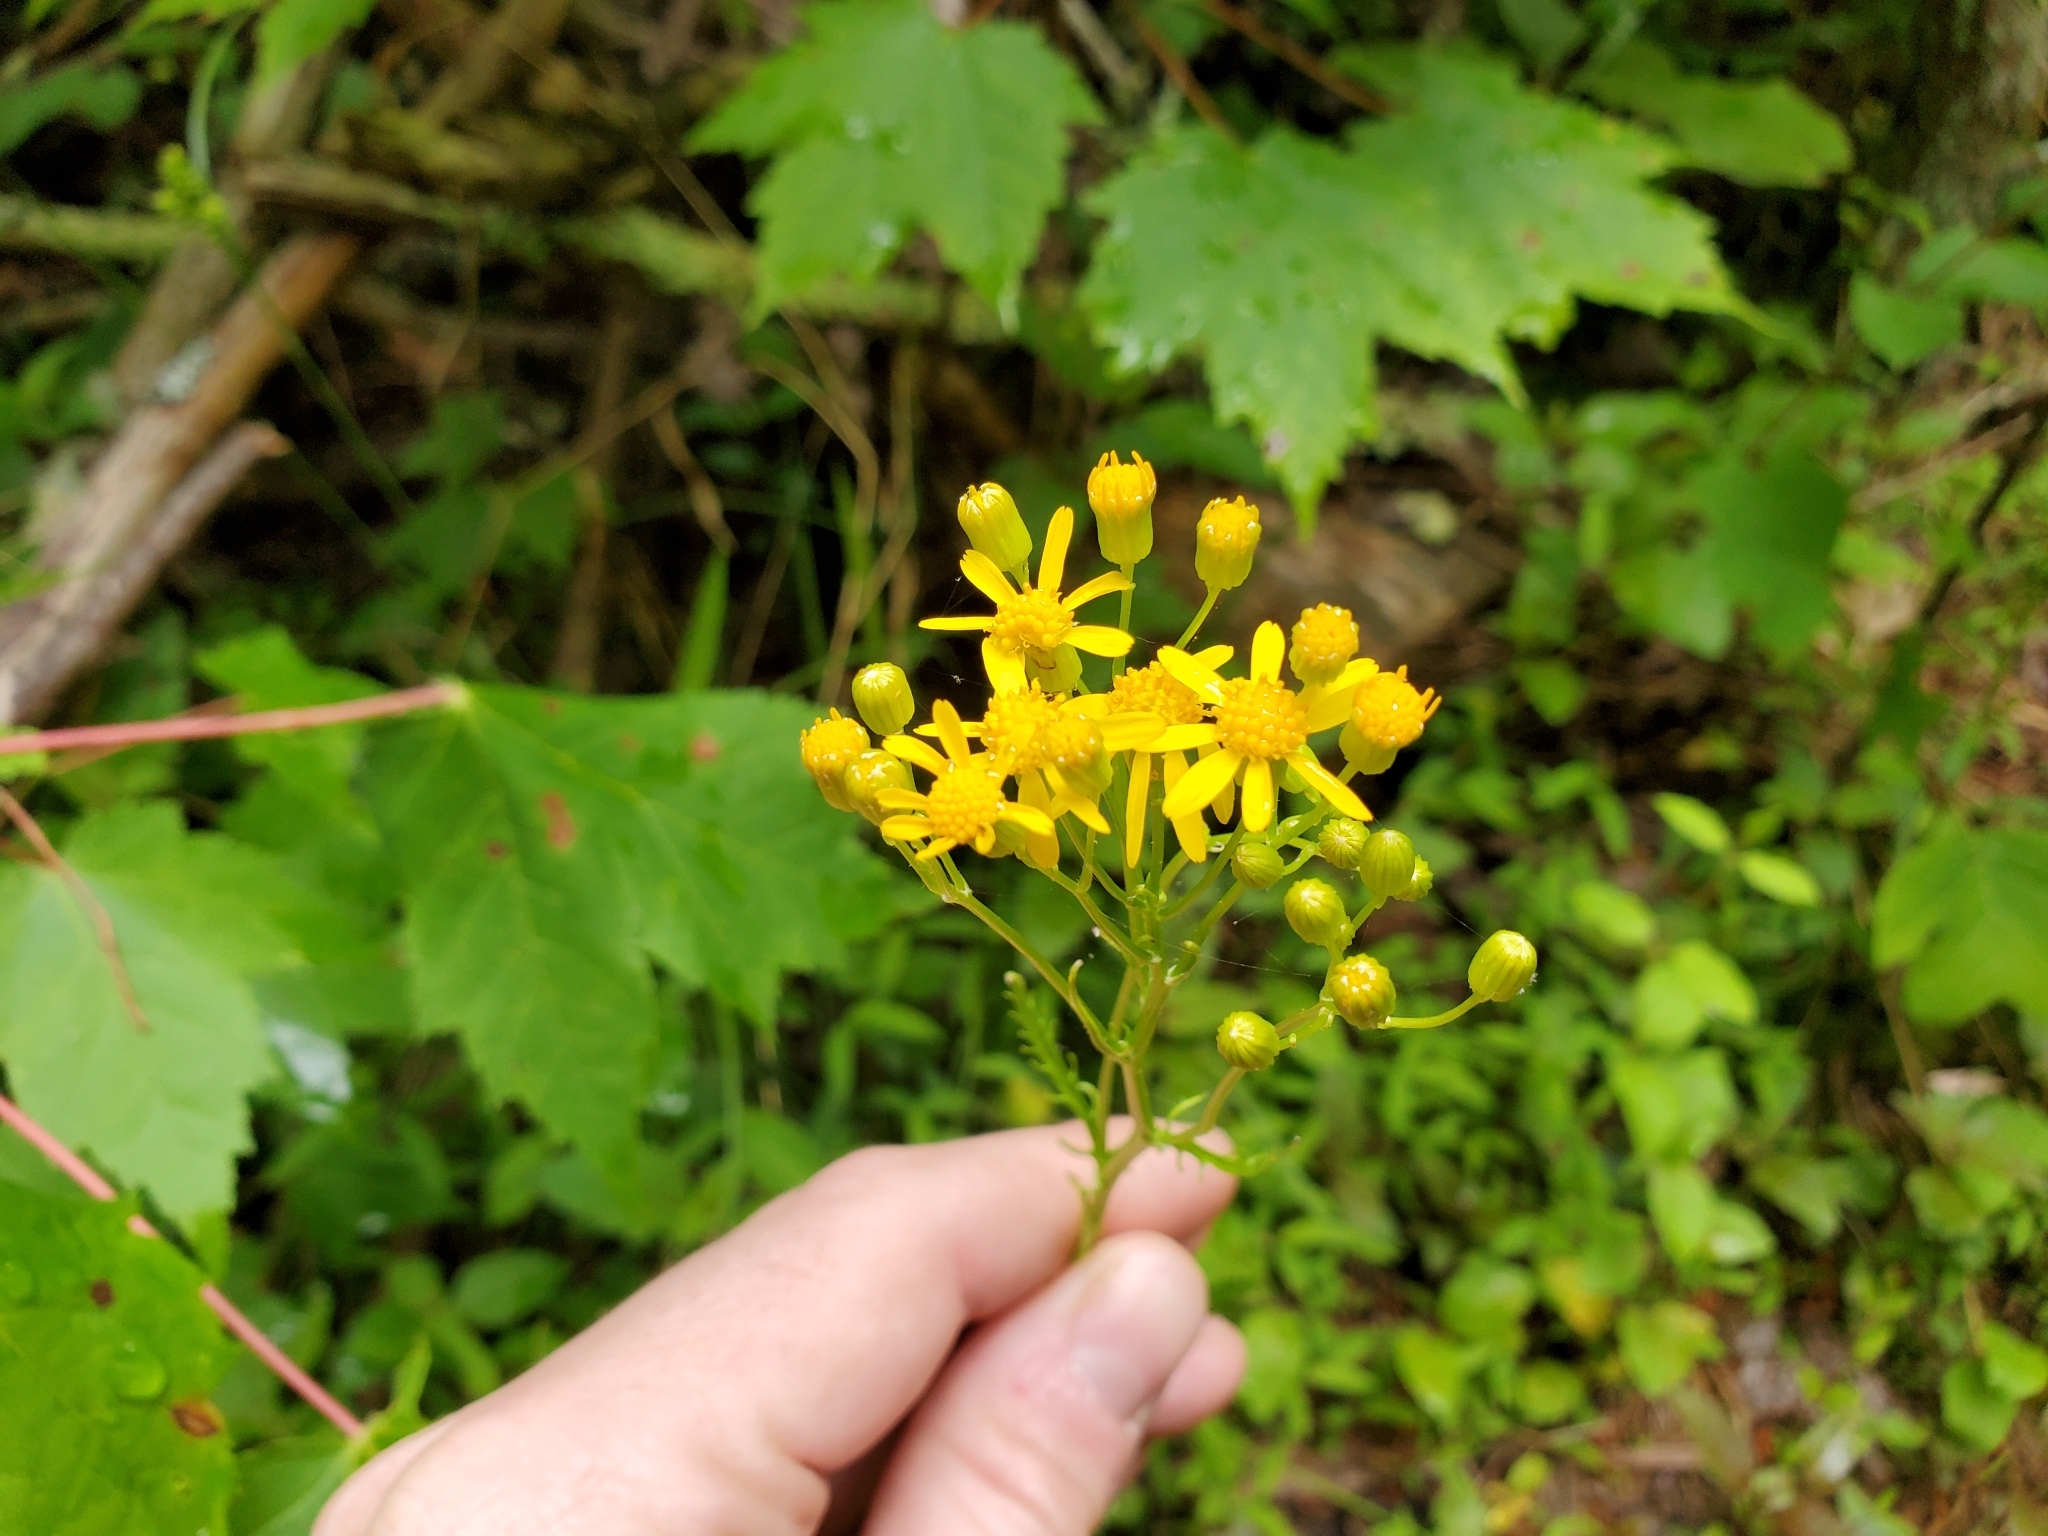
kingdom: Plantae
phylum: Tracheophyta
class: Magnoliopsida
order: Asterales
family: Asteraceae
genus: Packera
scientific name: Packera anonyma
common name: Small ragwort
